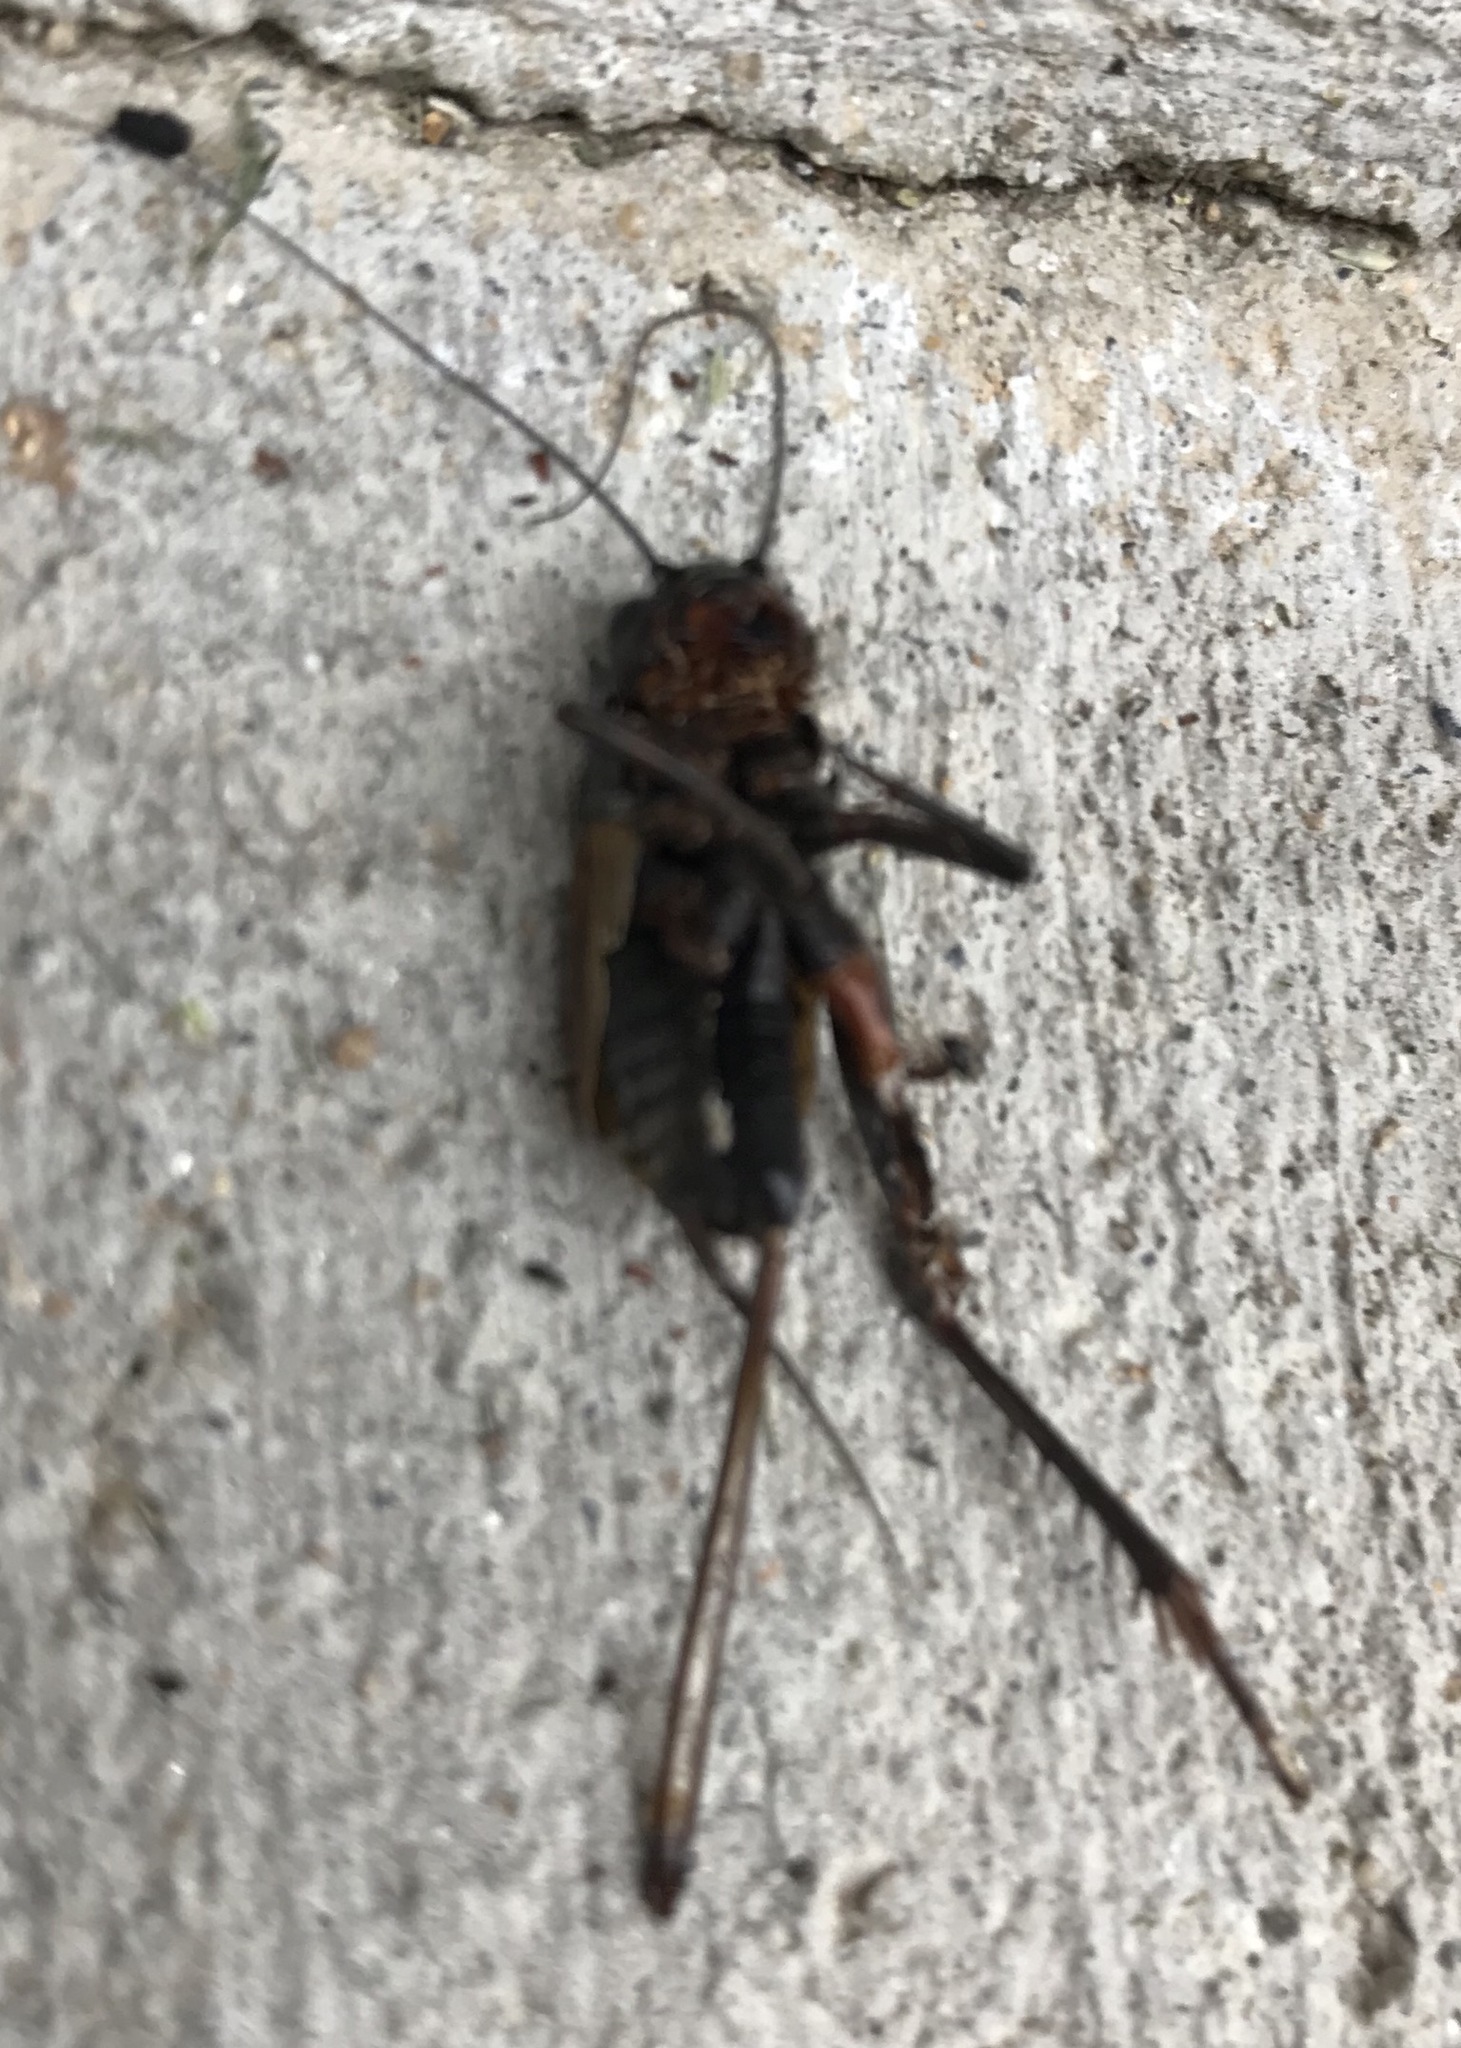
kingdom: Animalia
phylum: Arthropoda
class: Insecta
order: Orthoptera
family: Gryllidae
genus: Gryllus
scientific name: Gryllus pennsylvanicus
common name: Fall field cricket
